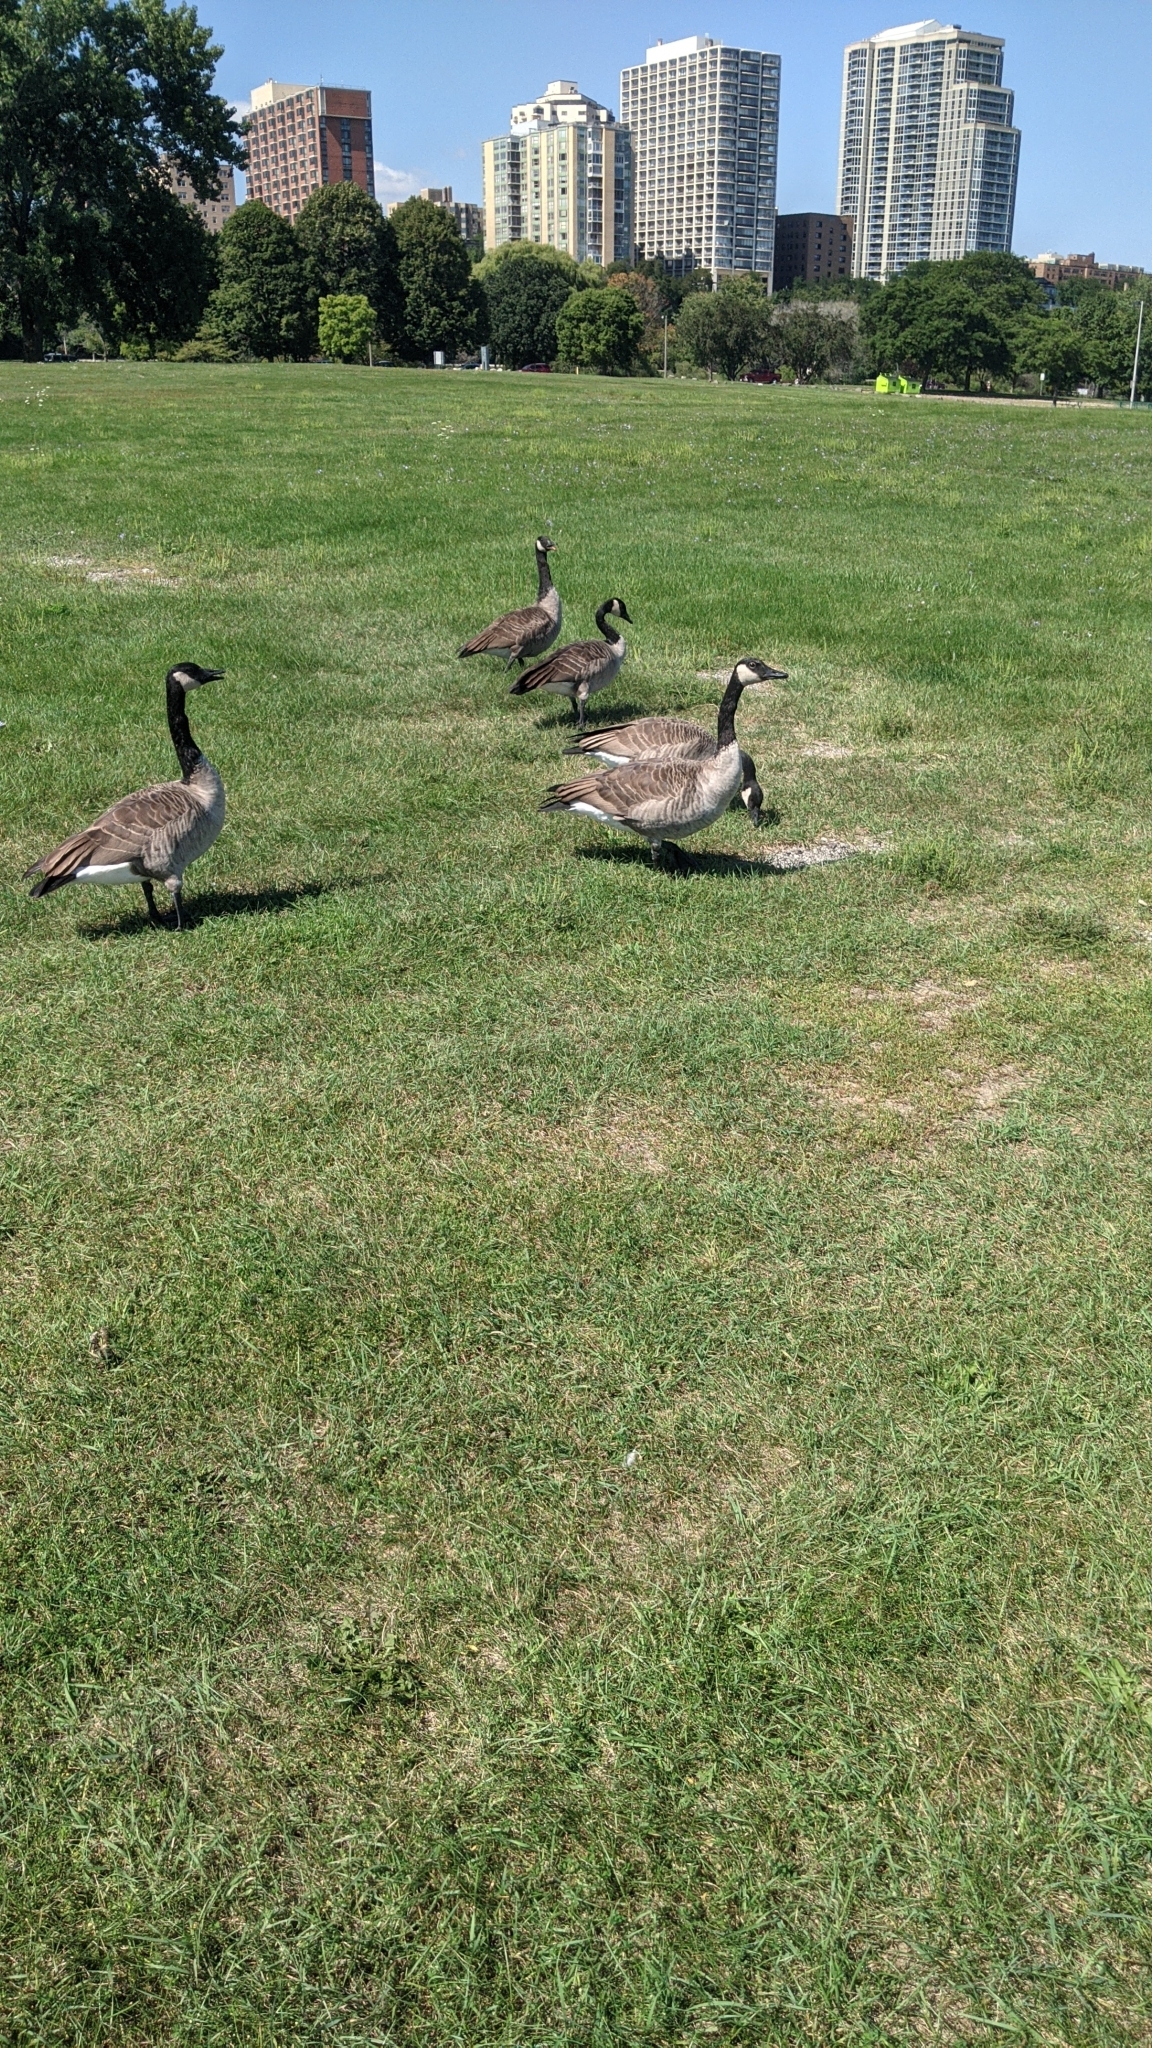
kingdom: Animalia
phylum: Chordata
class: Aves
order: Anseriformes
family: Anatidae
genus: Branta
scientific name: Branta canadensis
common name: Canada goose
